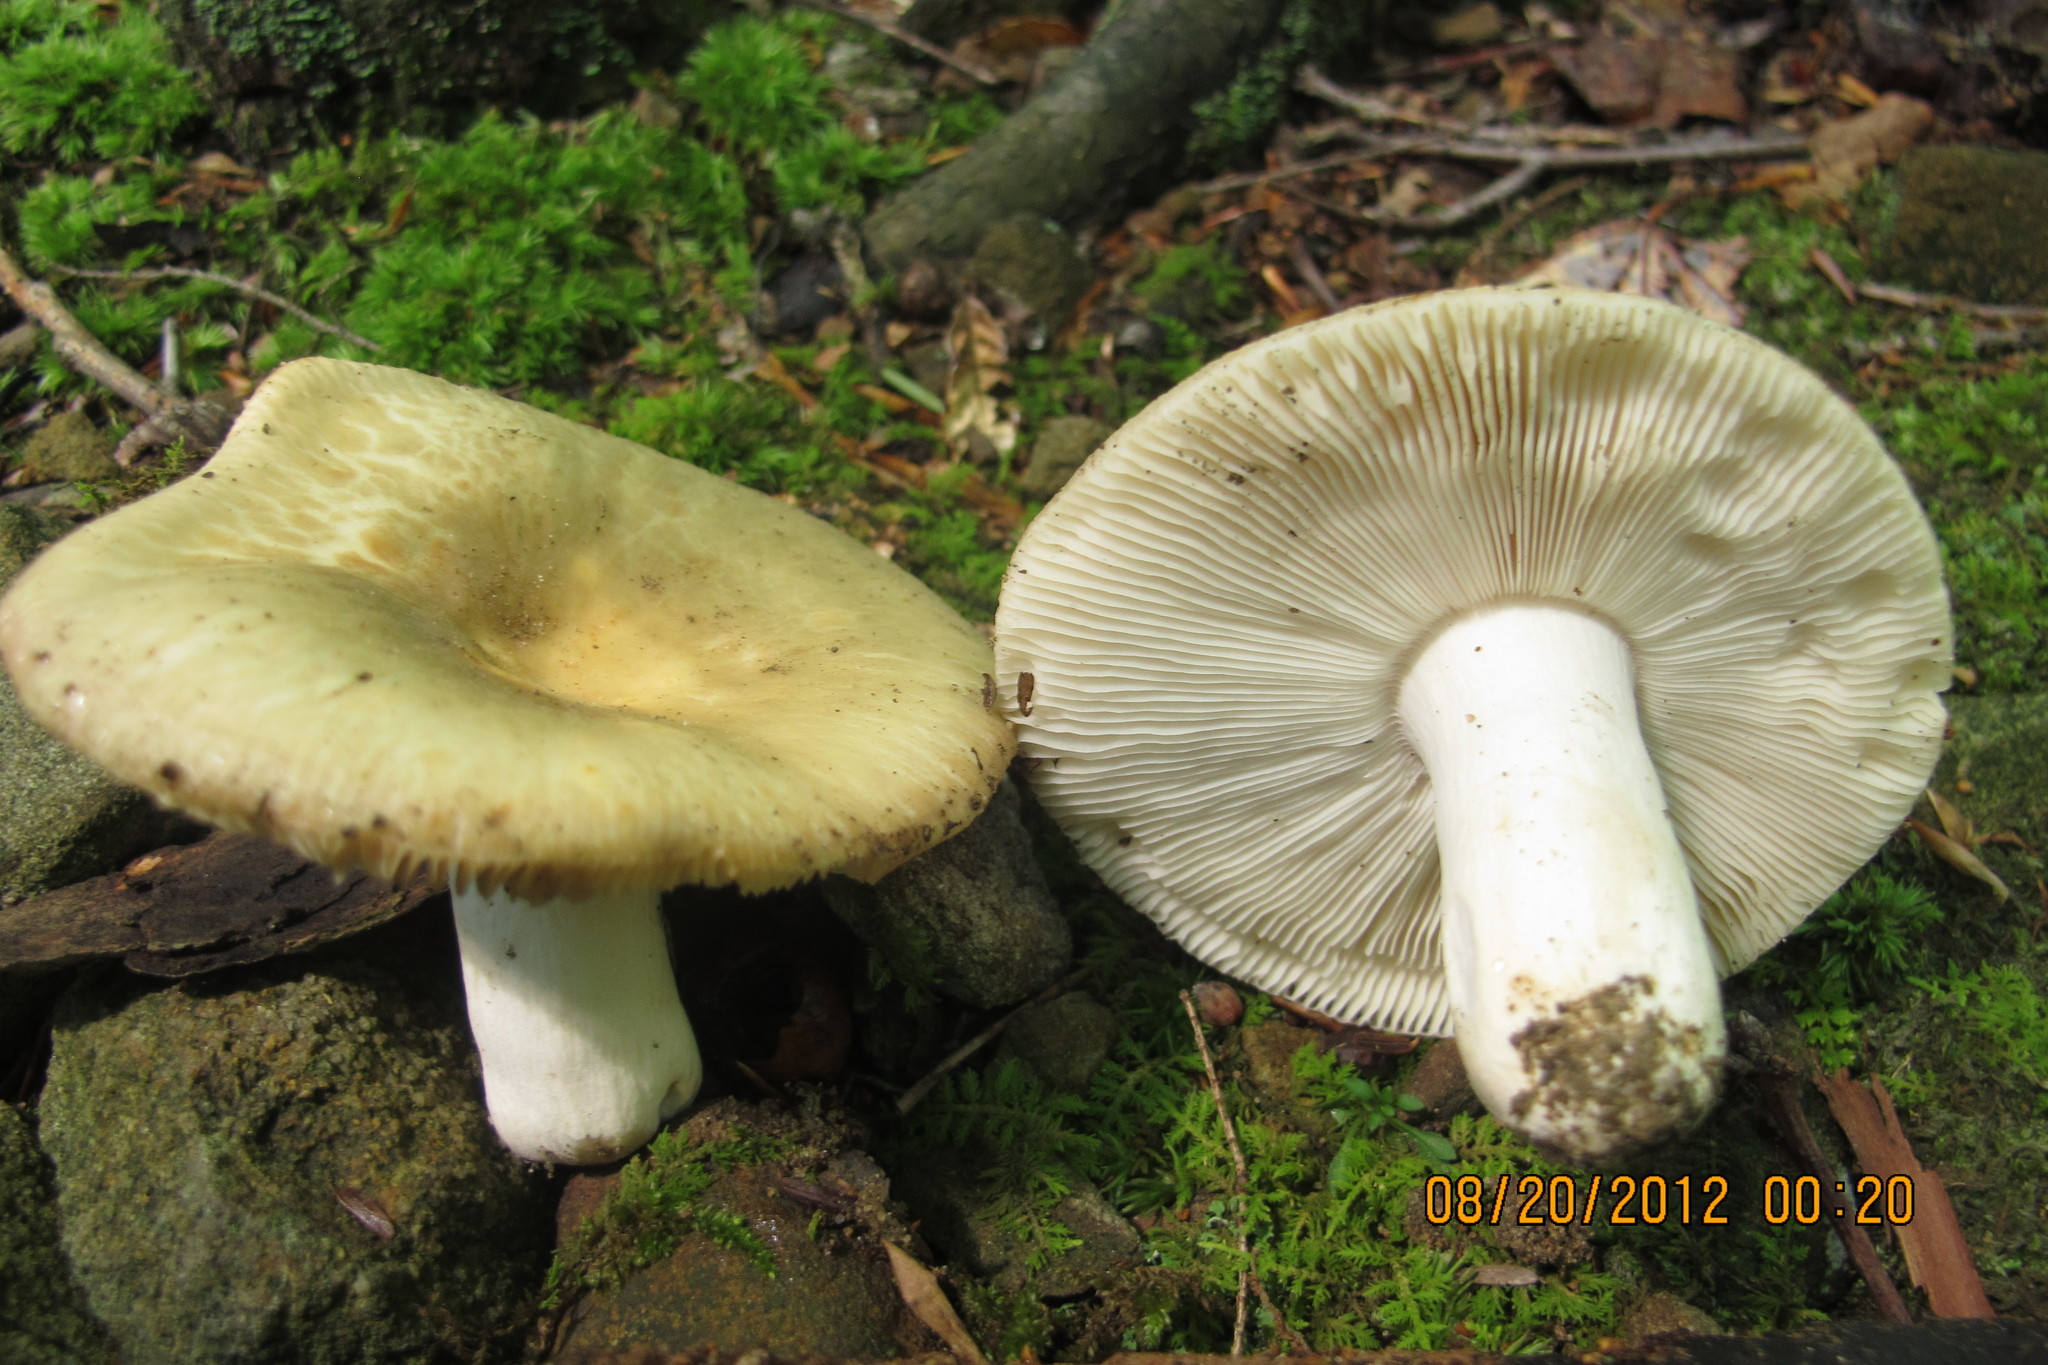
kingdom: Fungi
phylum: Basidiomycota
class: Agaricomycetes
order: Russulales
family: Russulaceae
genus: Russula
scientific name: Russula crustosa
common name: Green quilt russula
